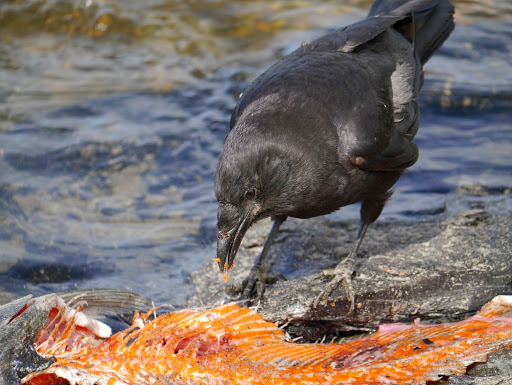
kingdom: Animalia
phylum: Chordata
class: Aves
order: Passeriformes
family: Corvidae
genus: Corvus
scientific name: Corvus brachyrhynchos
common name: American crow
